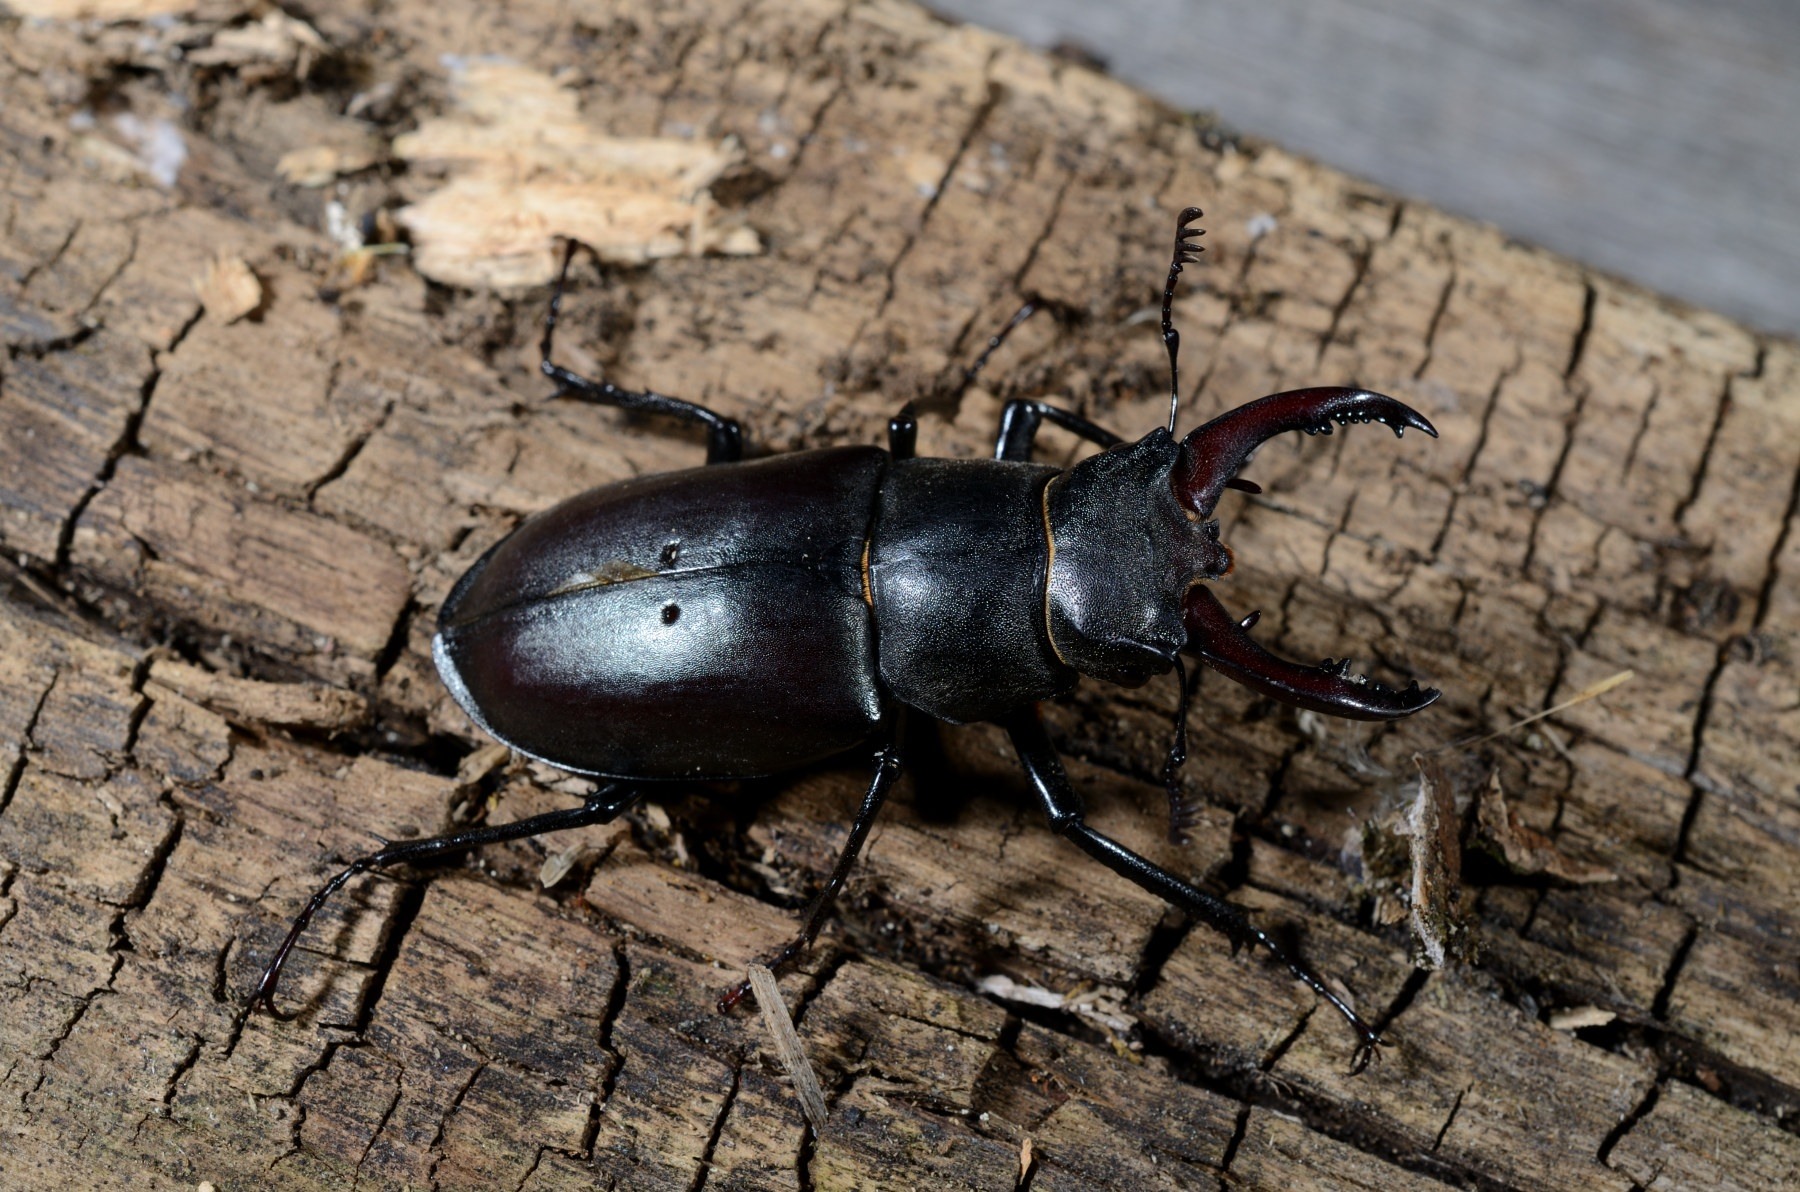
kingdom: Animalia
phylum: Arthropoda
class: Insecta
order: Coleoptera
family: Lucanidae
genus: Lucanus
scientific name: Lucanus cervus
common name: Stag beetle
